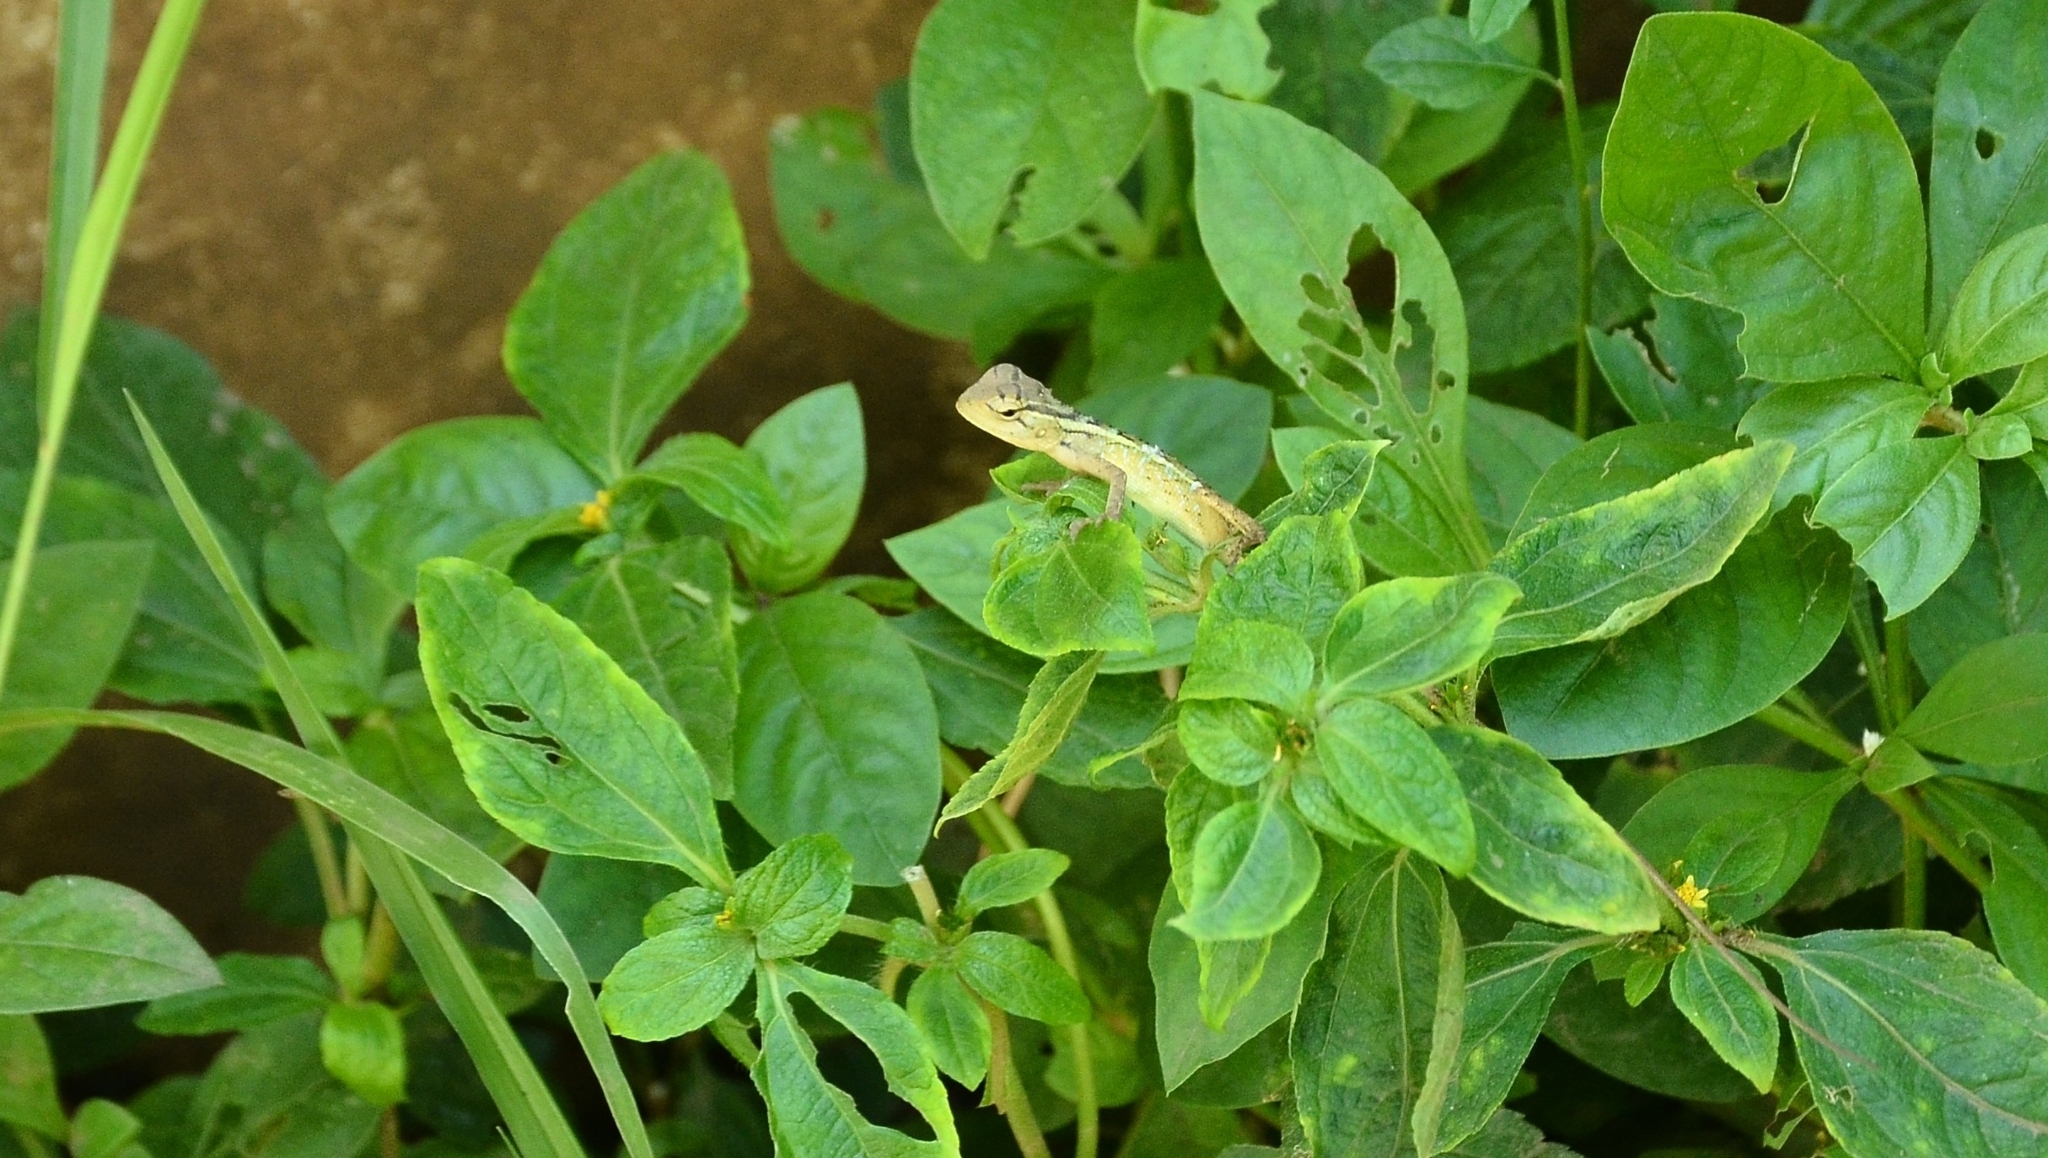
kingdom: Animalia
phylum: Chordata
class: Squamata
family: Agamidae
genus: Calotes
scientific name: Calotes versicolor
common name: Oriental garden lizard
